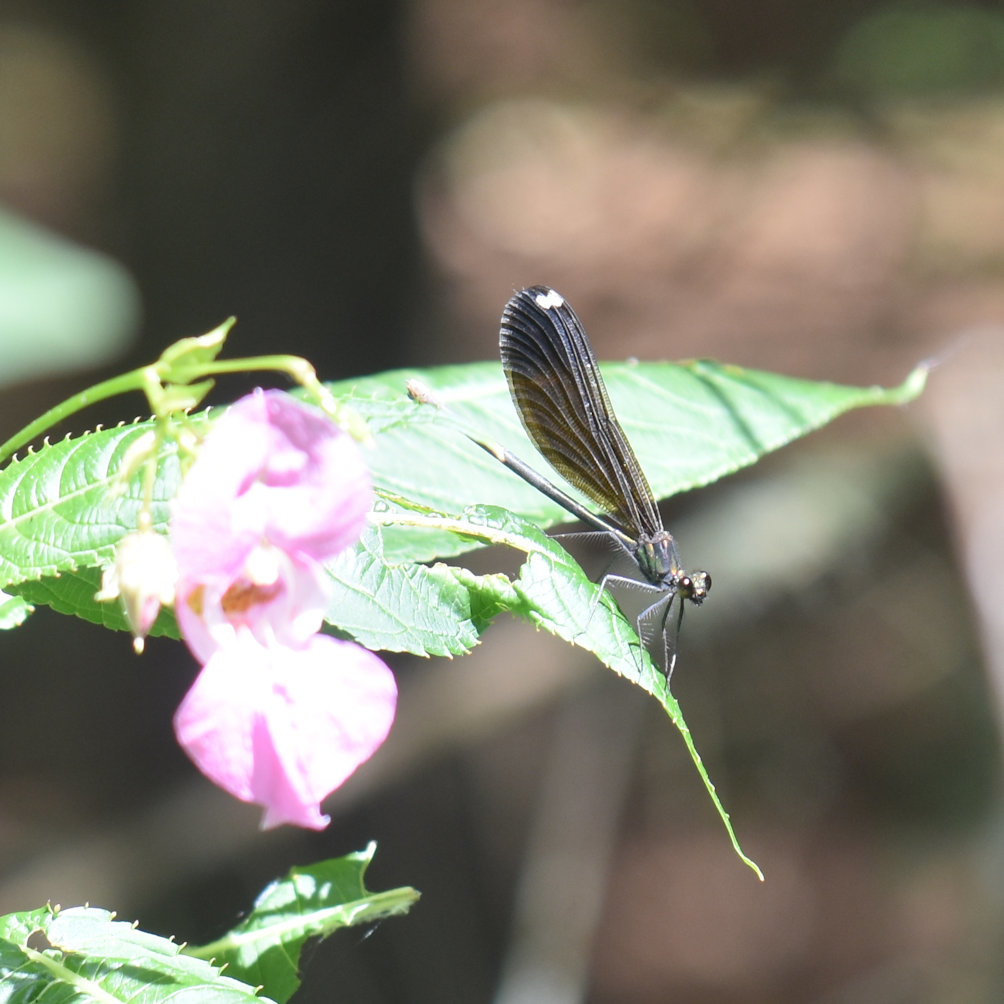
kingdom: Animalia
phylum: Arthropoda
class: Insecta
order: Odonata
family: Calopterygidae
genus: Calopteryx
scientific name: Calopteryx maculata
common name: Ebony jewelwing
